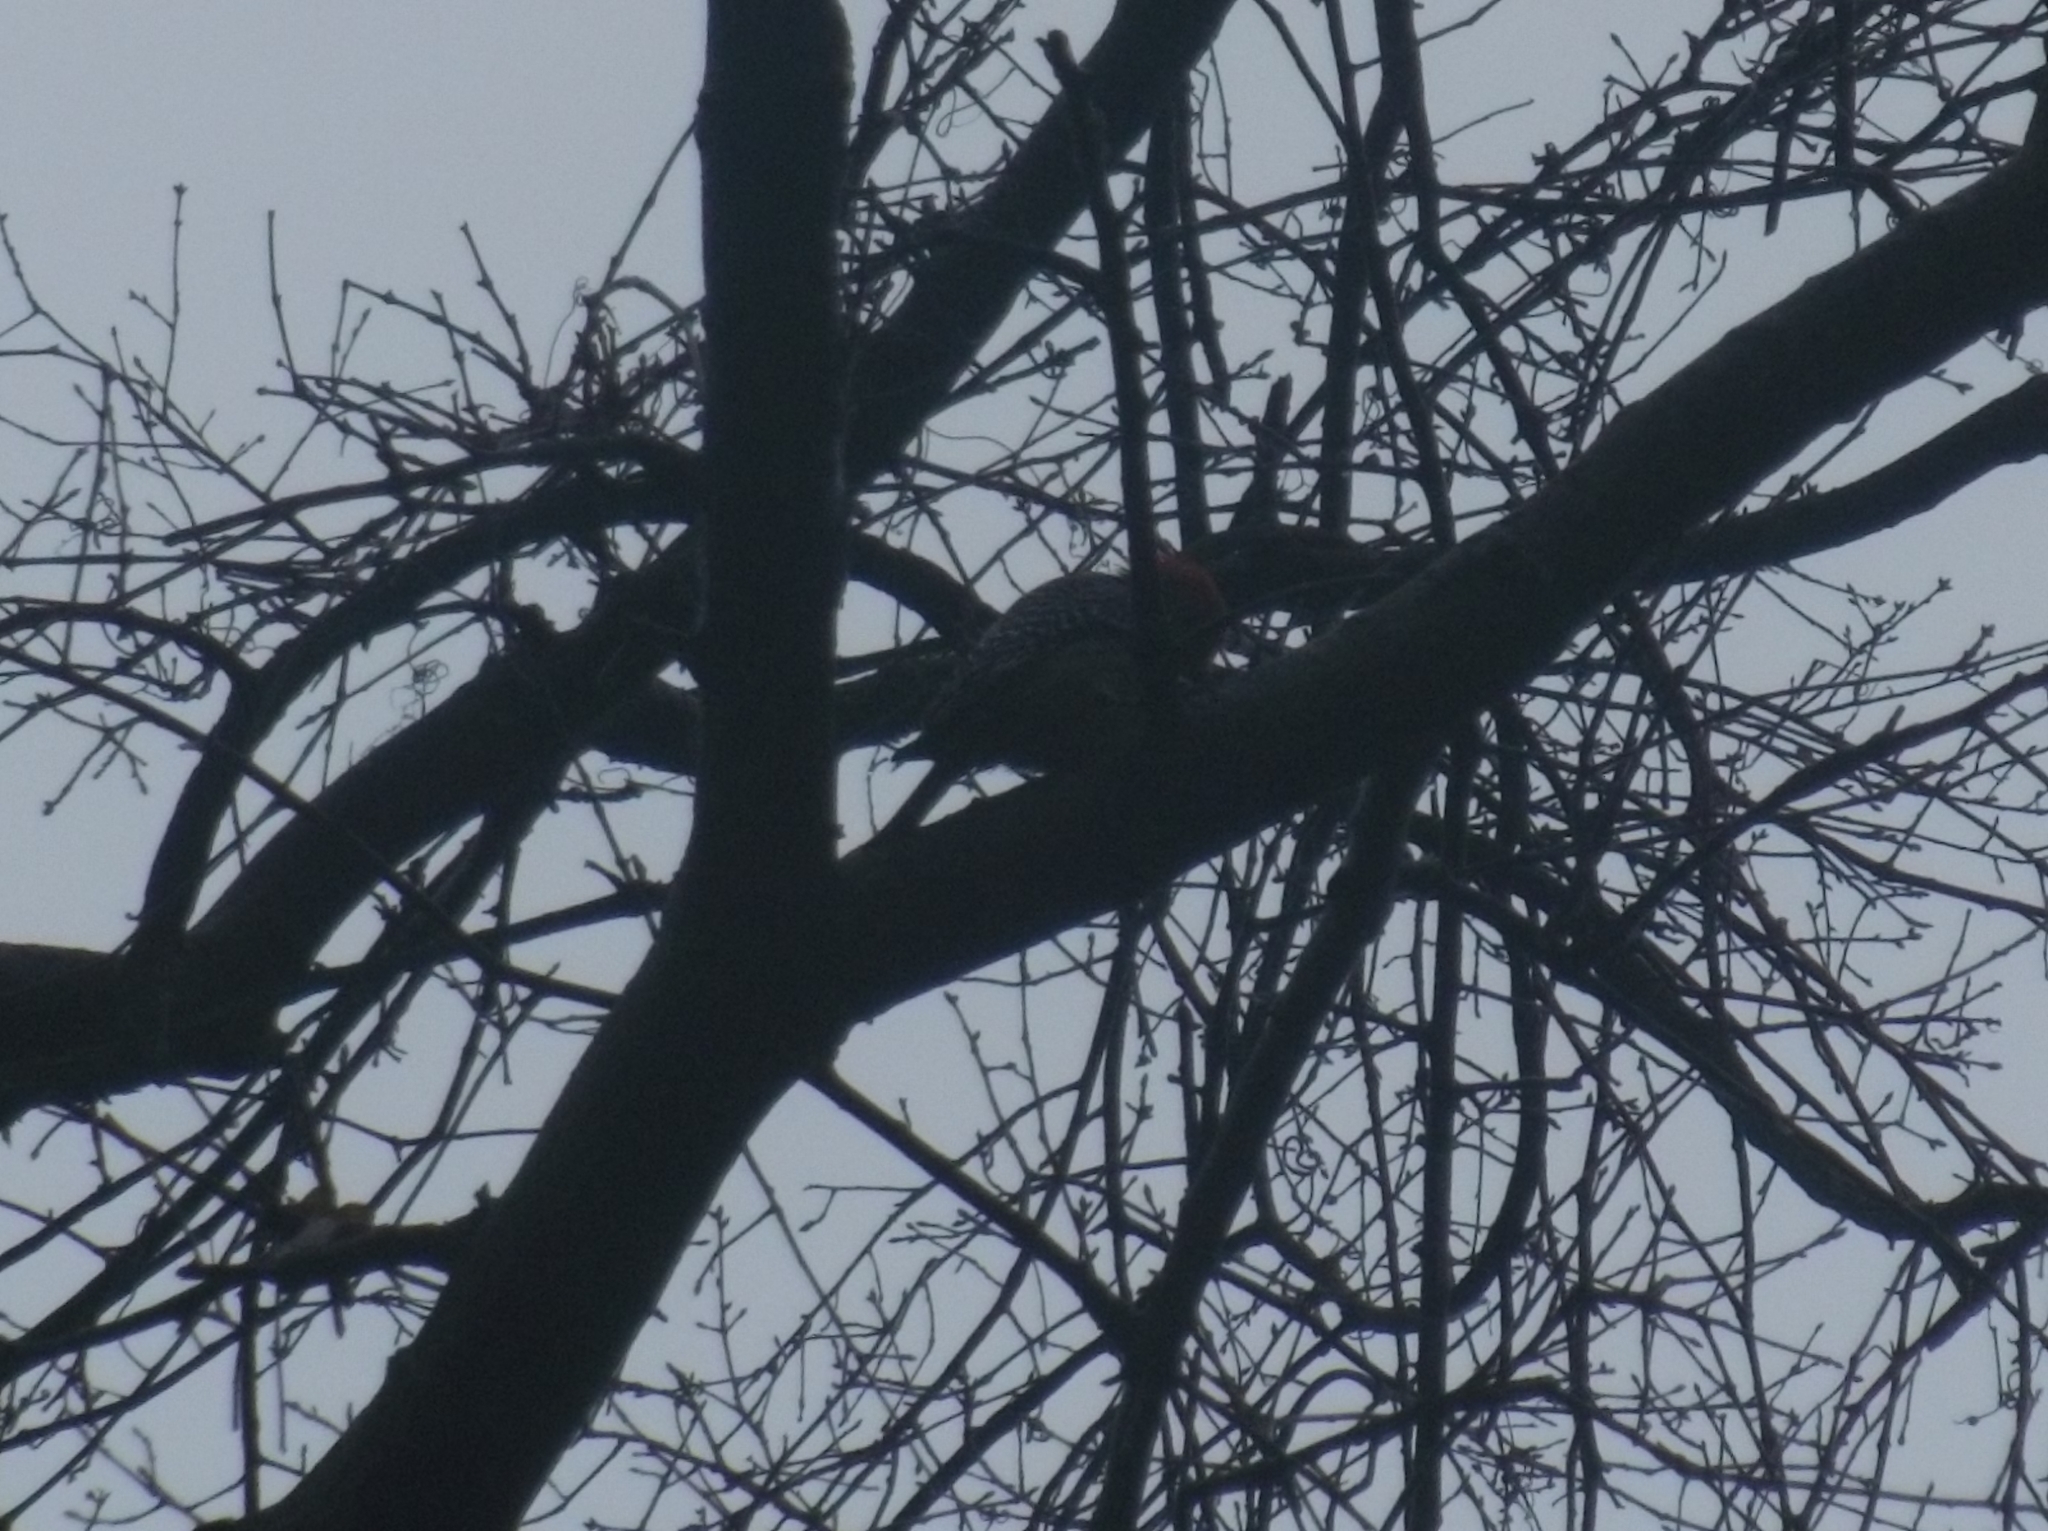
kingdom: Animalia
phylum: Chordata
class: Aves
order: Piciformes
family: Picidae
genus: Melanerpes
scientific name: Melanerpes carolinus
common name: Red-bellied woodpecker
